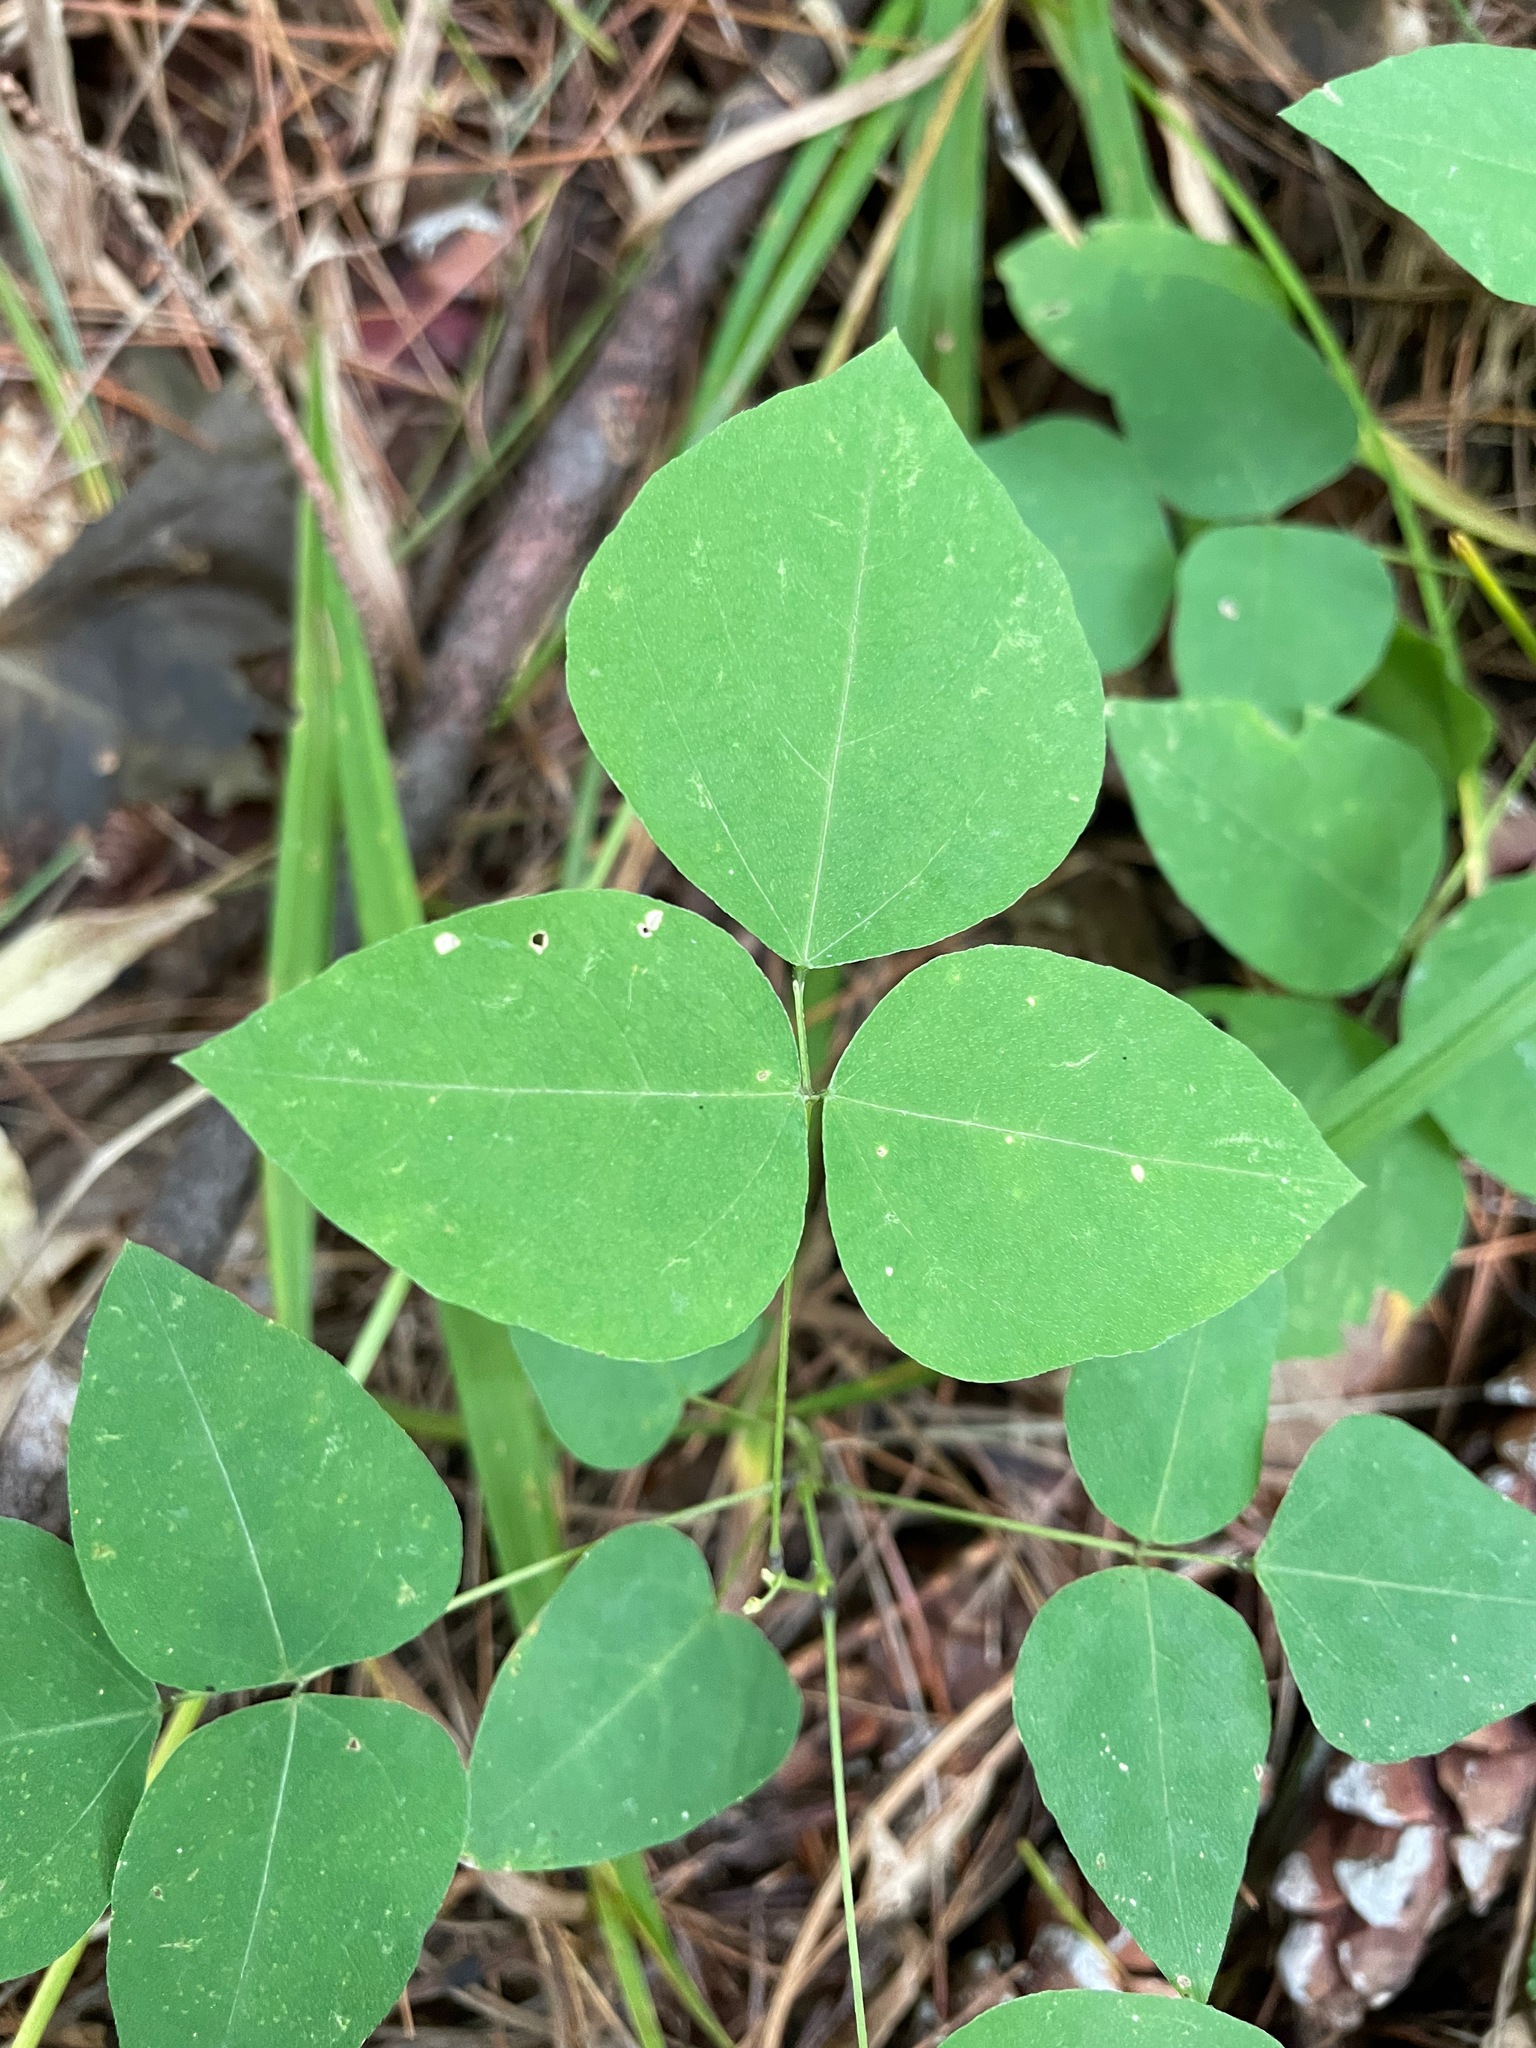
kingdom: Plantae
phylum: Tracheophyta
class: Magnoliopsida
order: Fabales
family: Fabaceae
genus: Amphicarpaea
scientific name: Amphicarpaea bracteata
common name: American hog peanut
